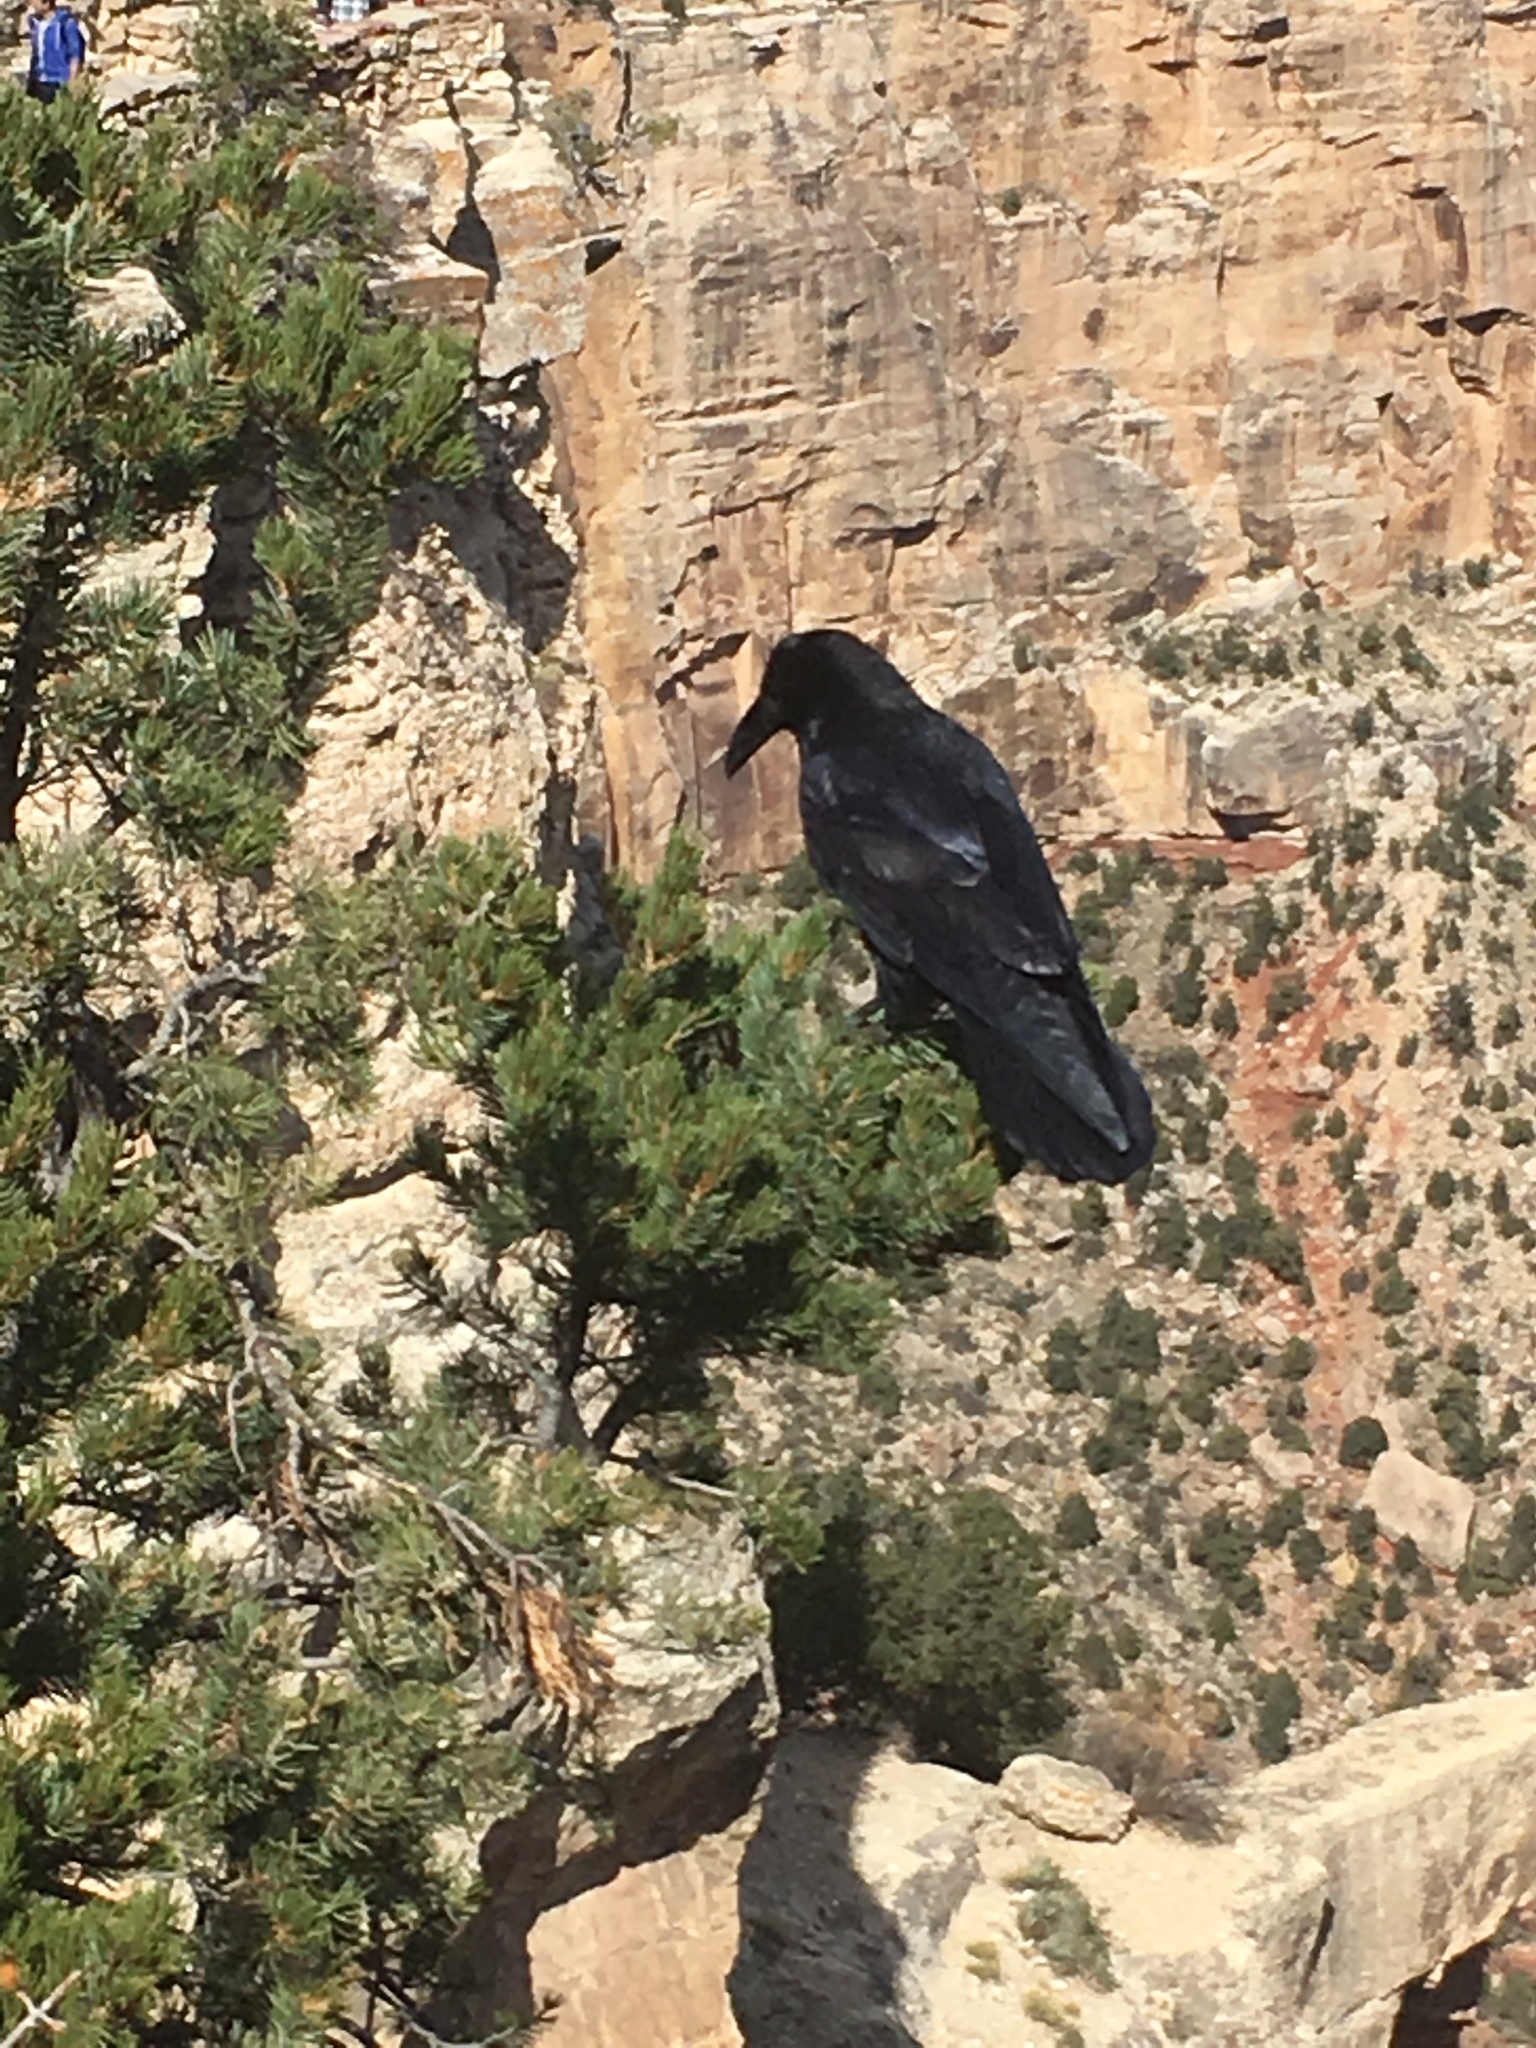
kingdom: Animalia
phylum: Chordata
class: Aves
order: Passeriformes
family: Corvidae
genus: Corvus
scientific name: Corvus corax
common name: Common raven
